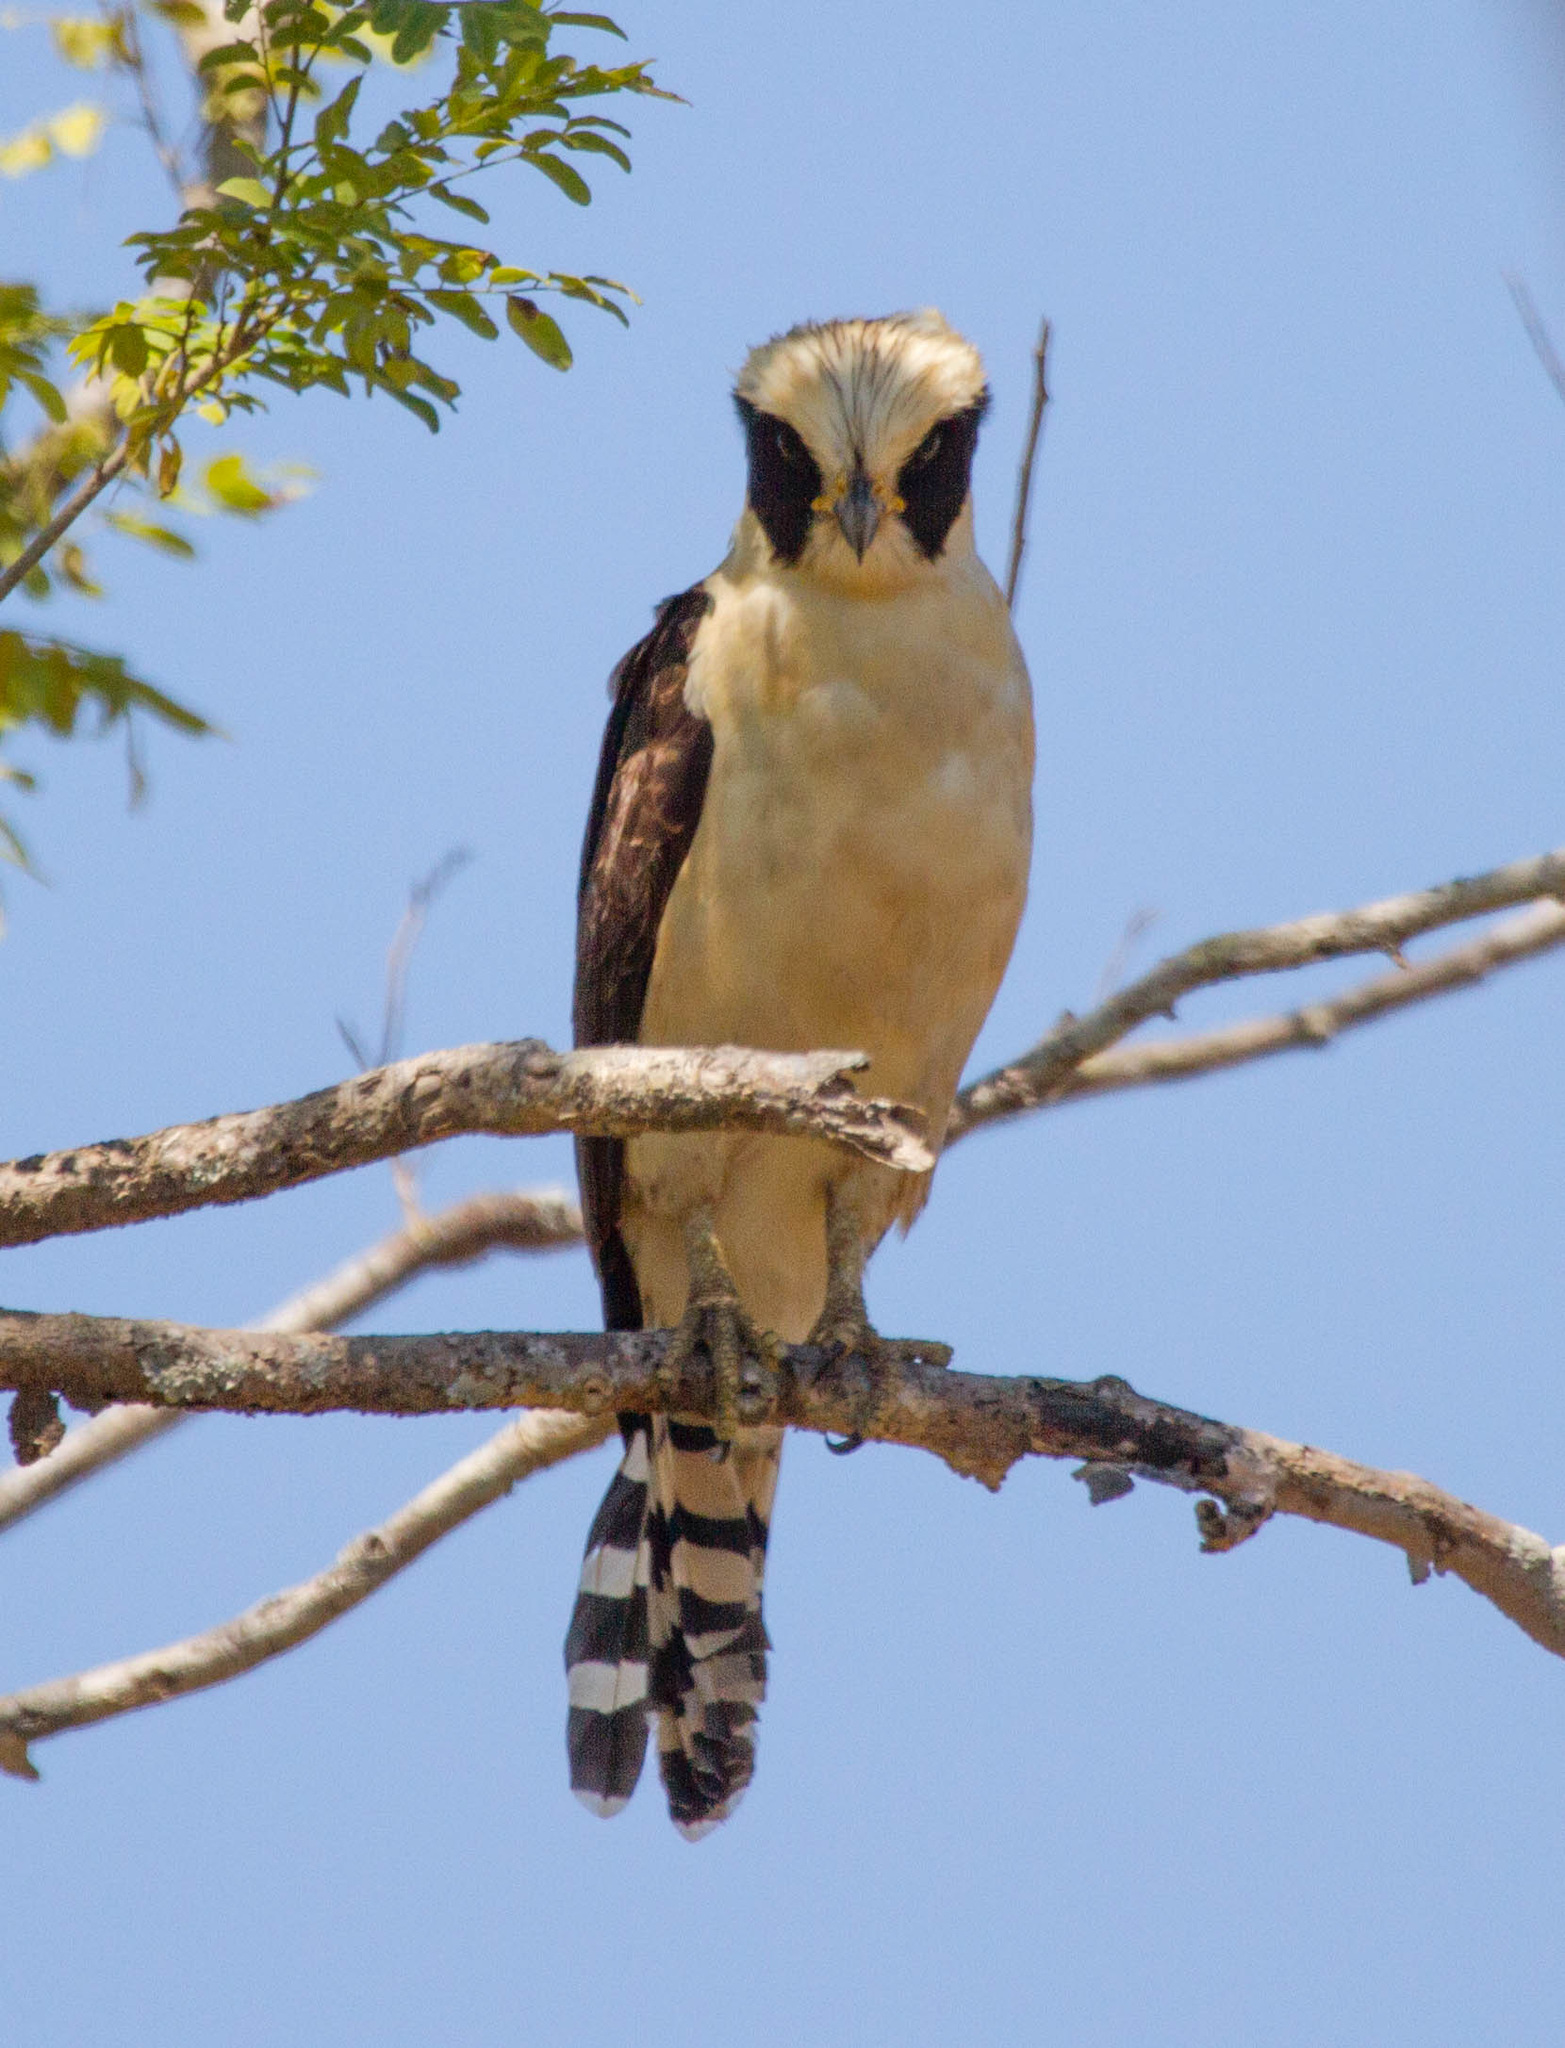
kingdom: Animalia
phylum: Chordata
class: Aves
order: Falconiformes
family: Falconidae
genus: Herpetotheres
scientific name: Herpetotheres cachinnans
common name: Laughing falcon
